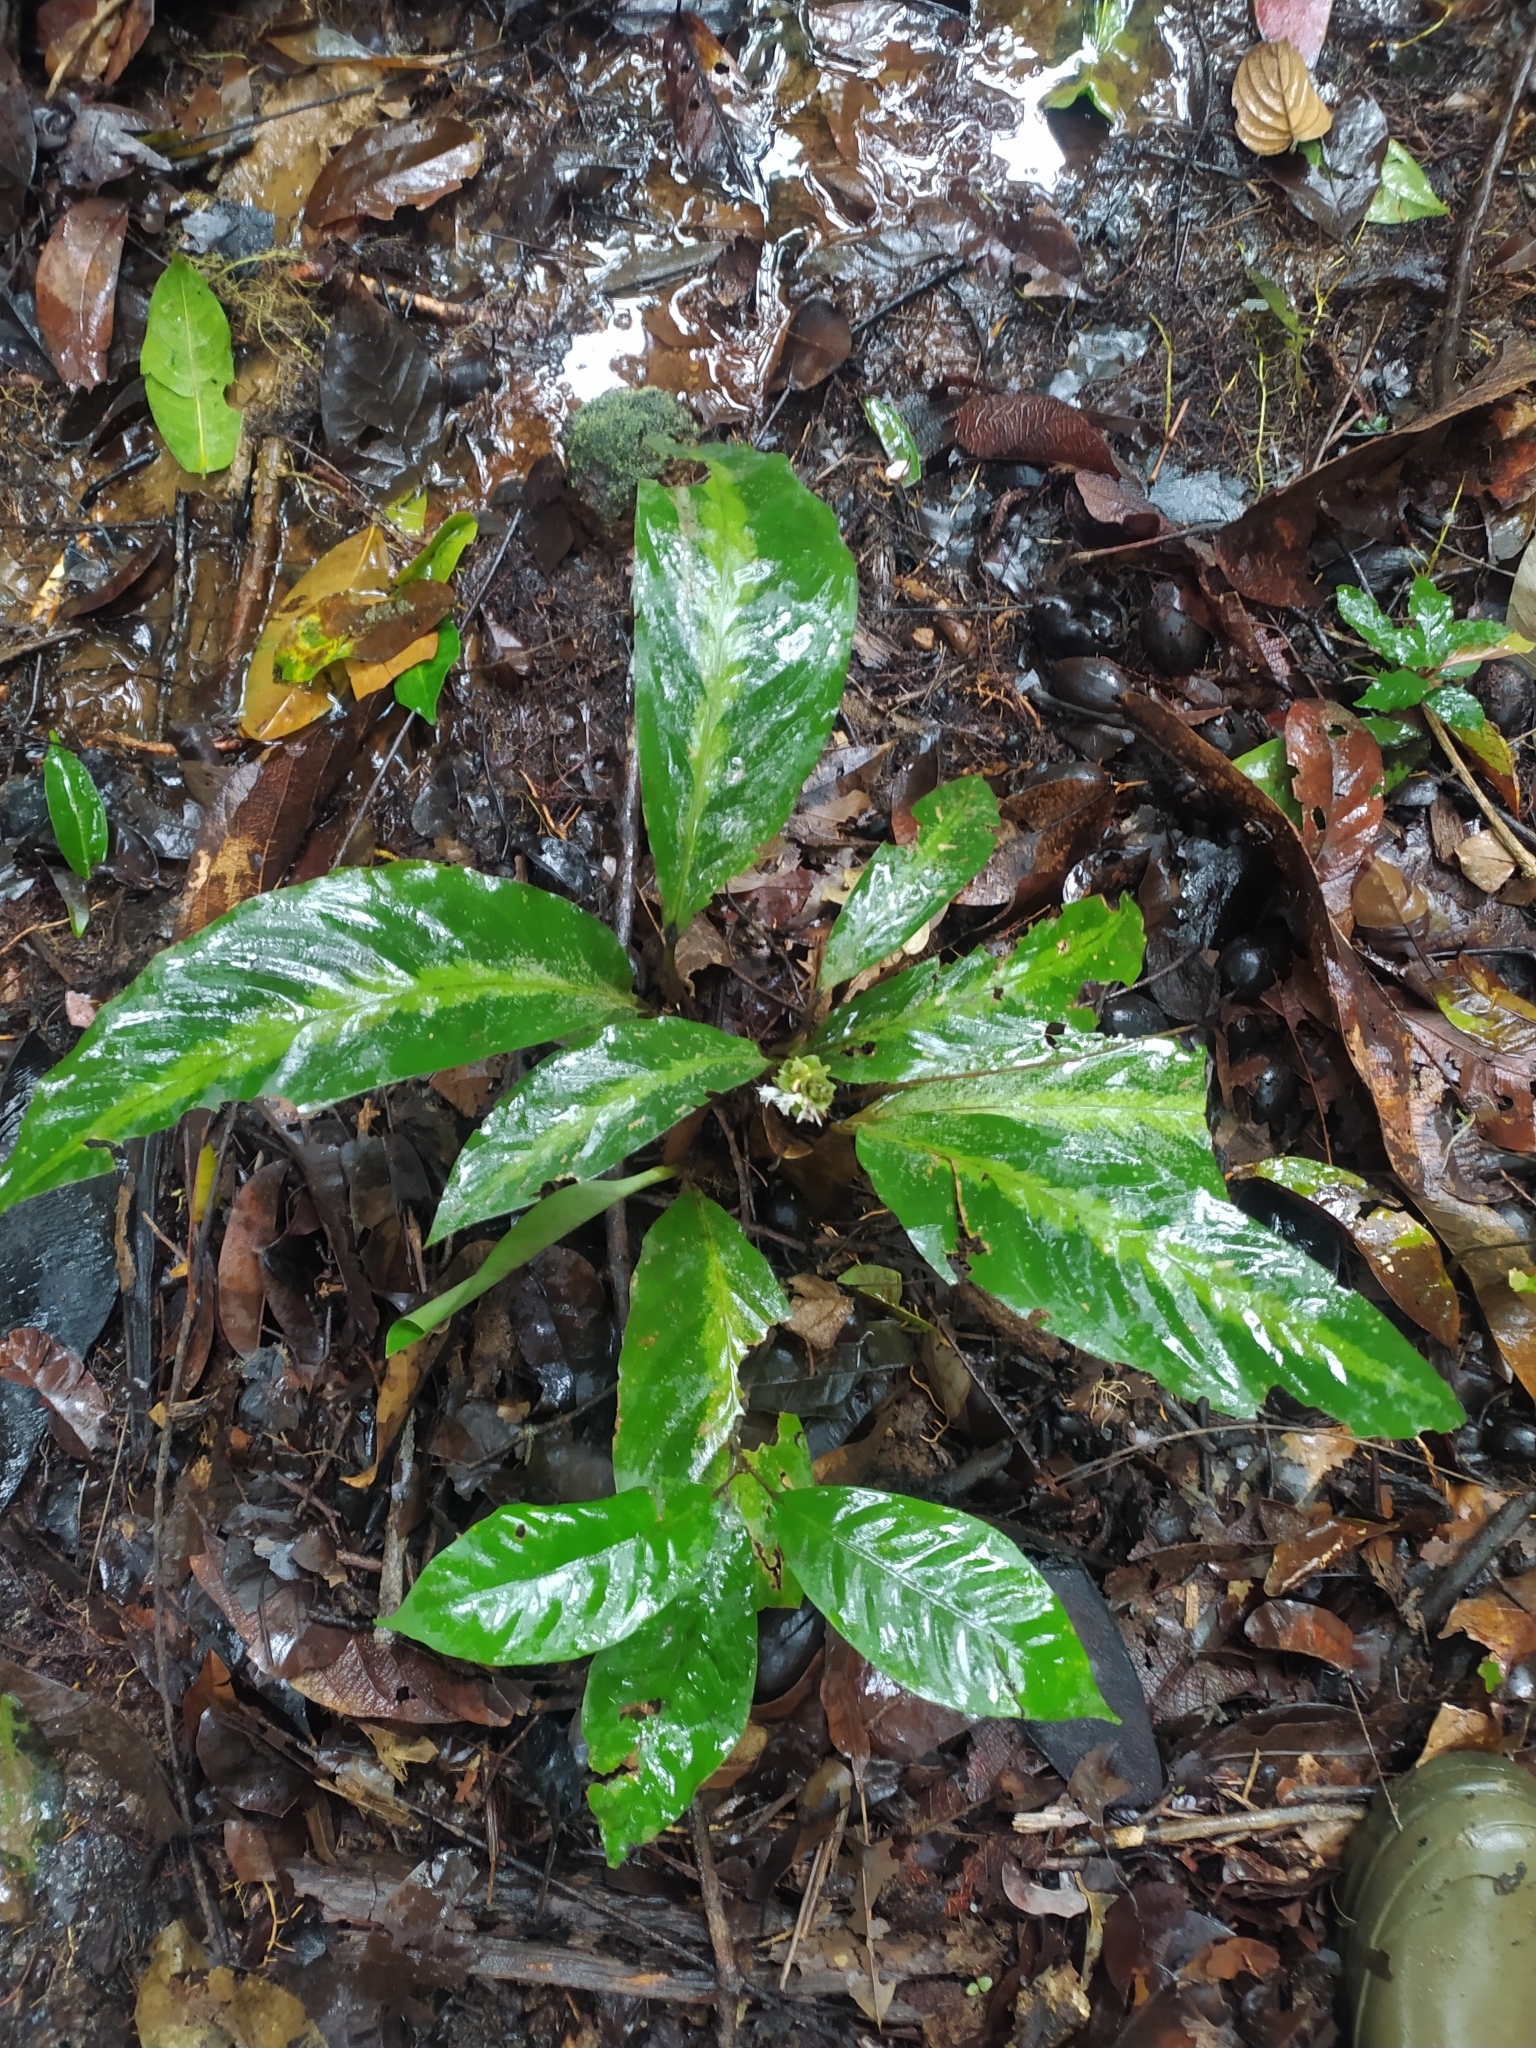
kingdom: Plantae
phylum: Tracheophyta
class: Liliopsida
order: Zingiberales
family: Marantaceae
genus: Goeppertia
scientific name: Goeppertia maasiorum
